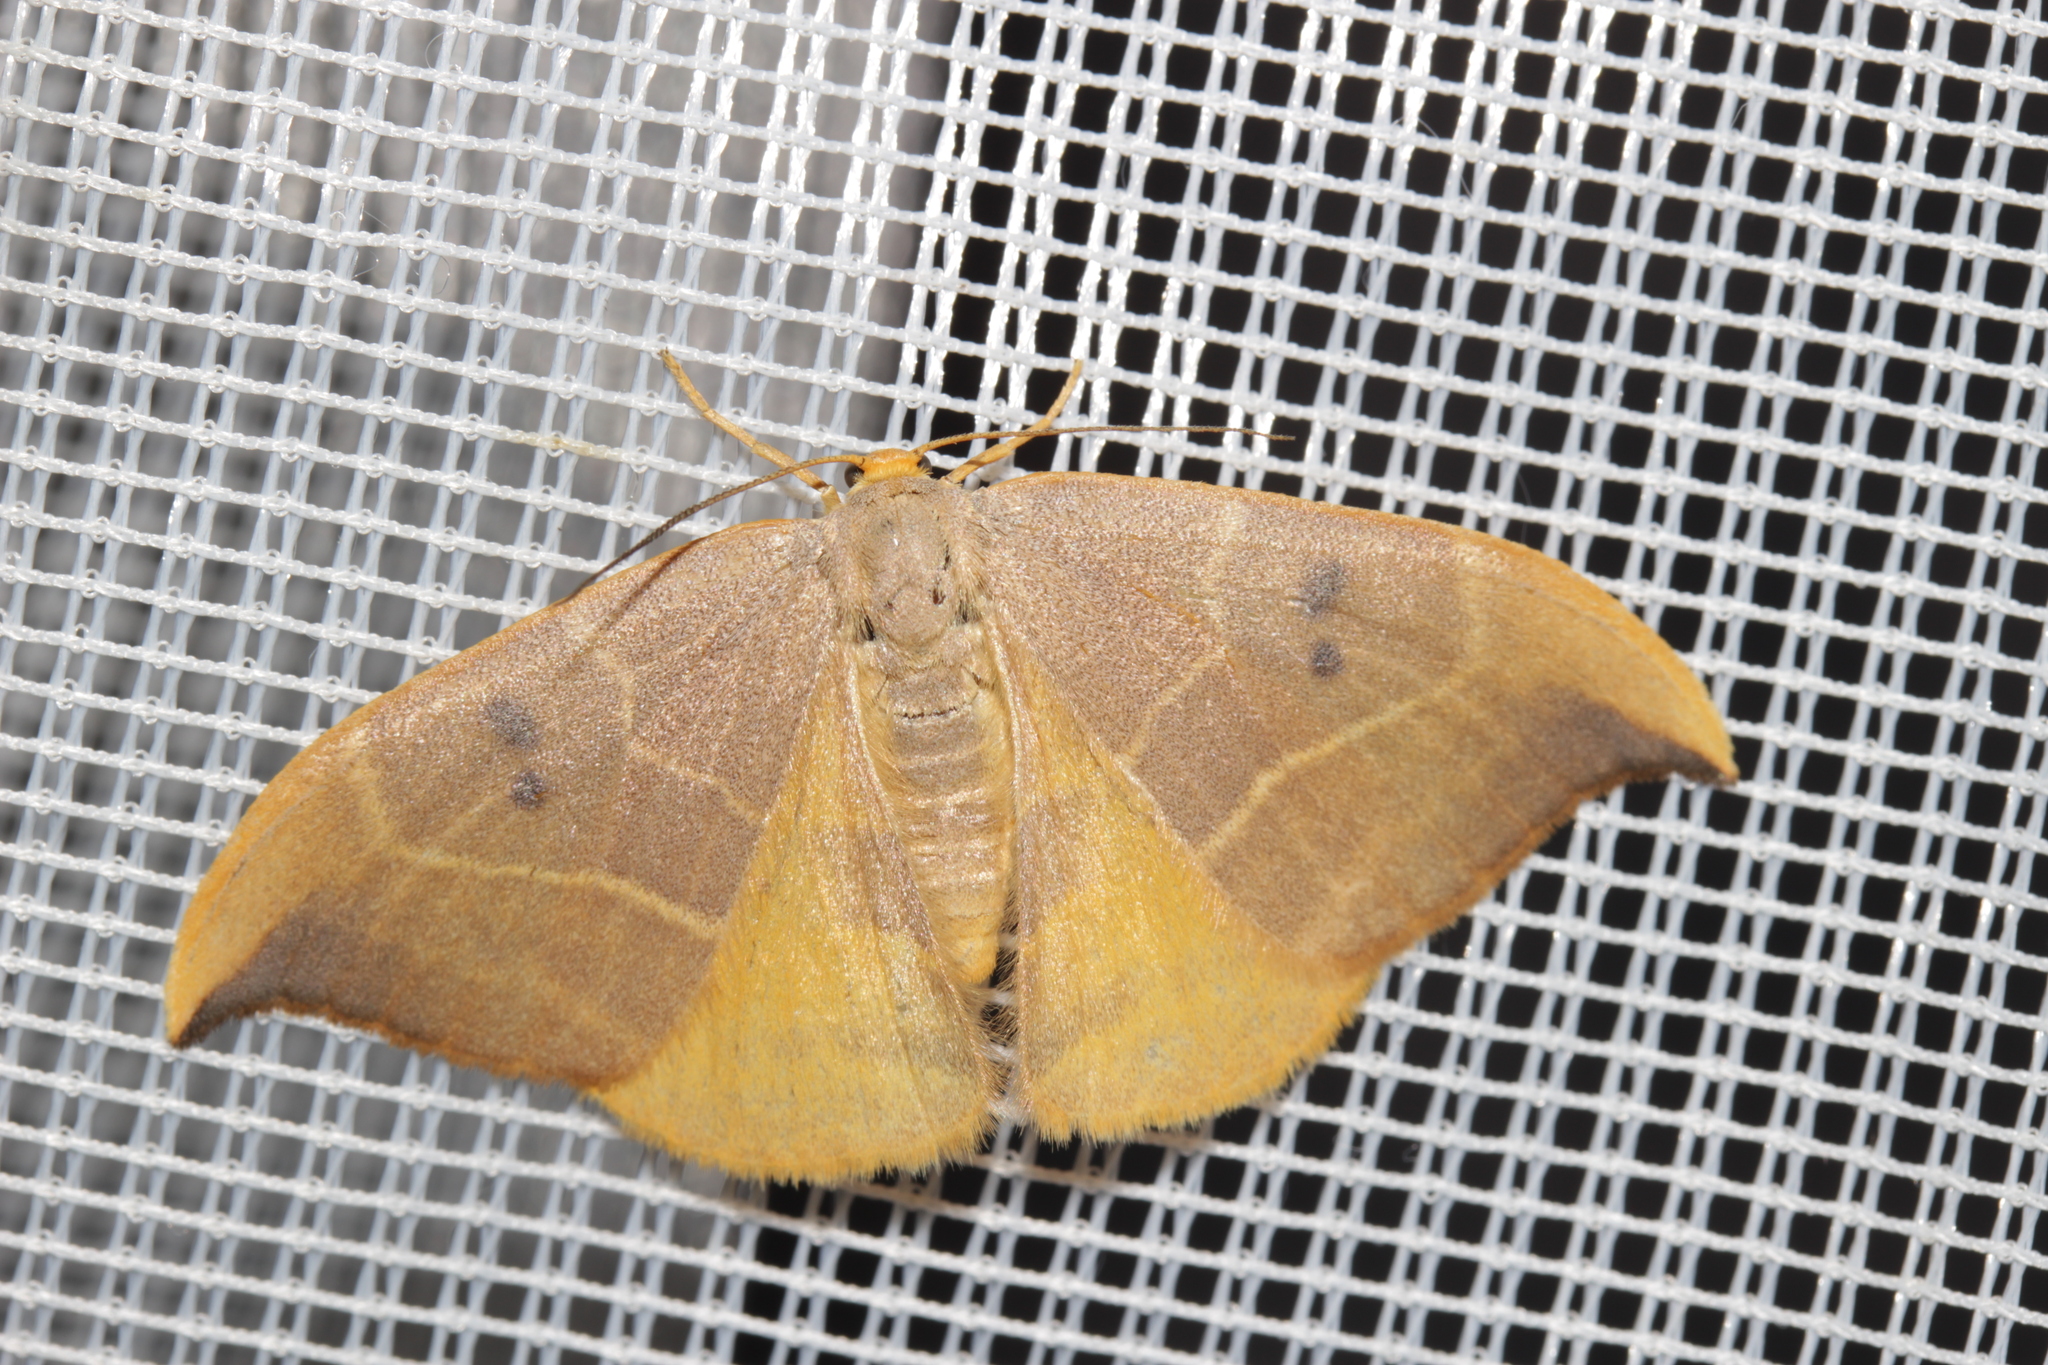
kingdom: Animalia
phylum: Arthropoda
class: Insecta
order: Lepidoptera
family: Drepanidae
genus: Watsonalla
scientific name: Watsonalla binaria
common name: Oak hook-tip
